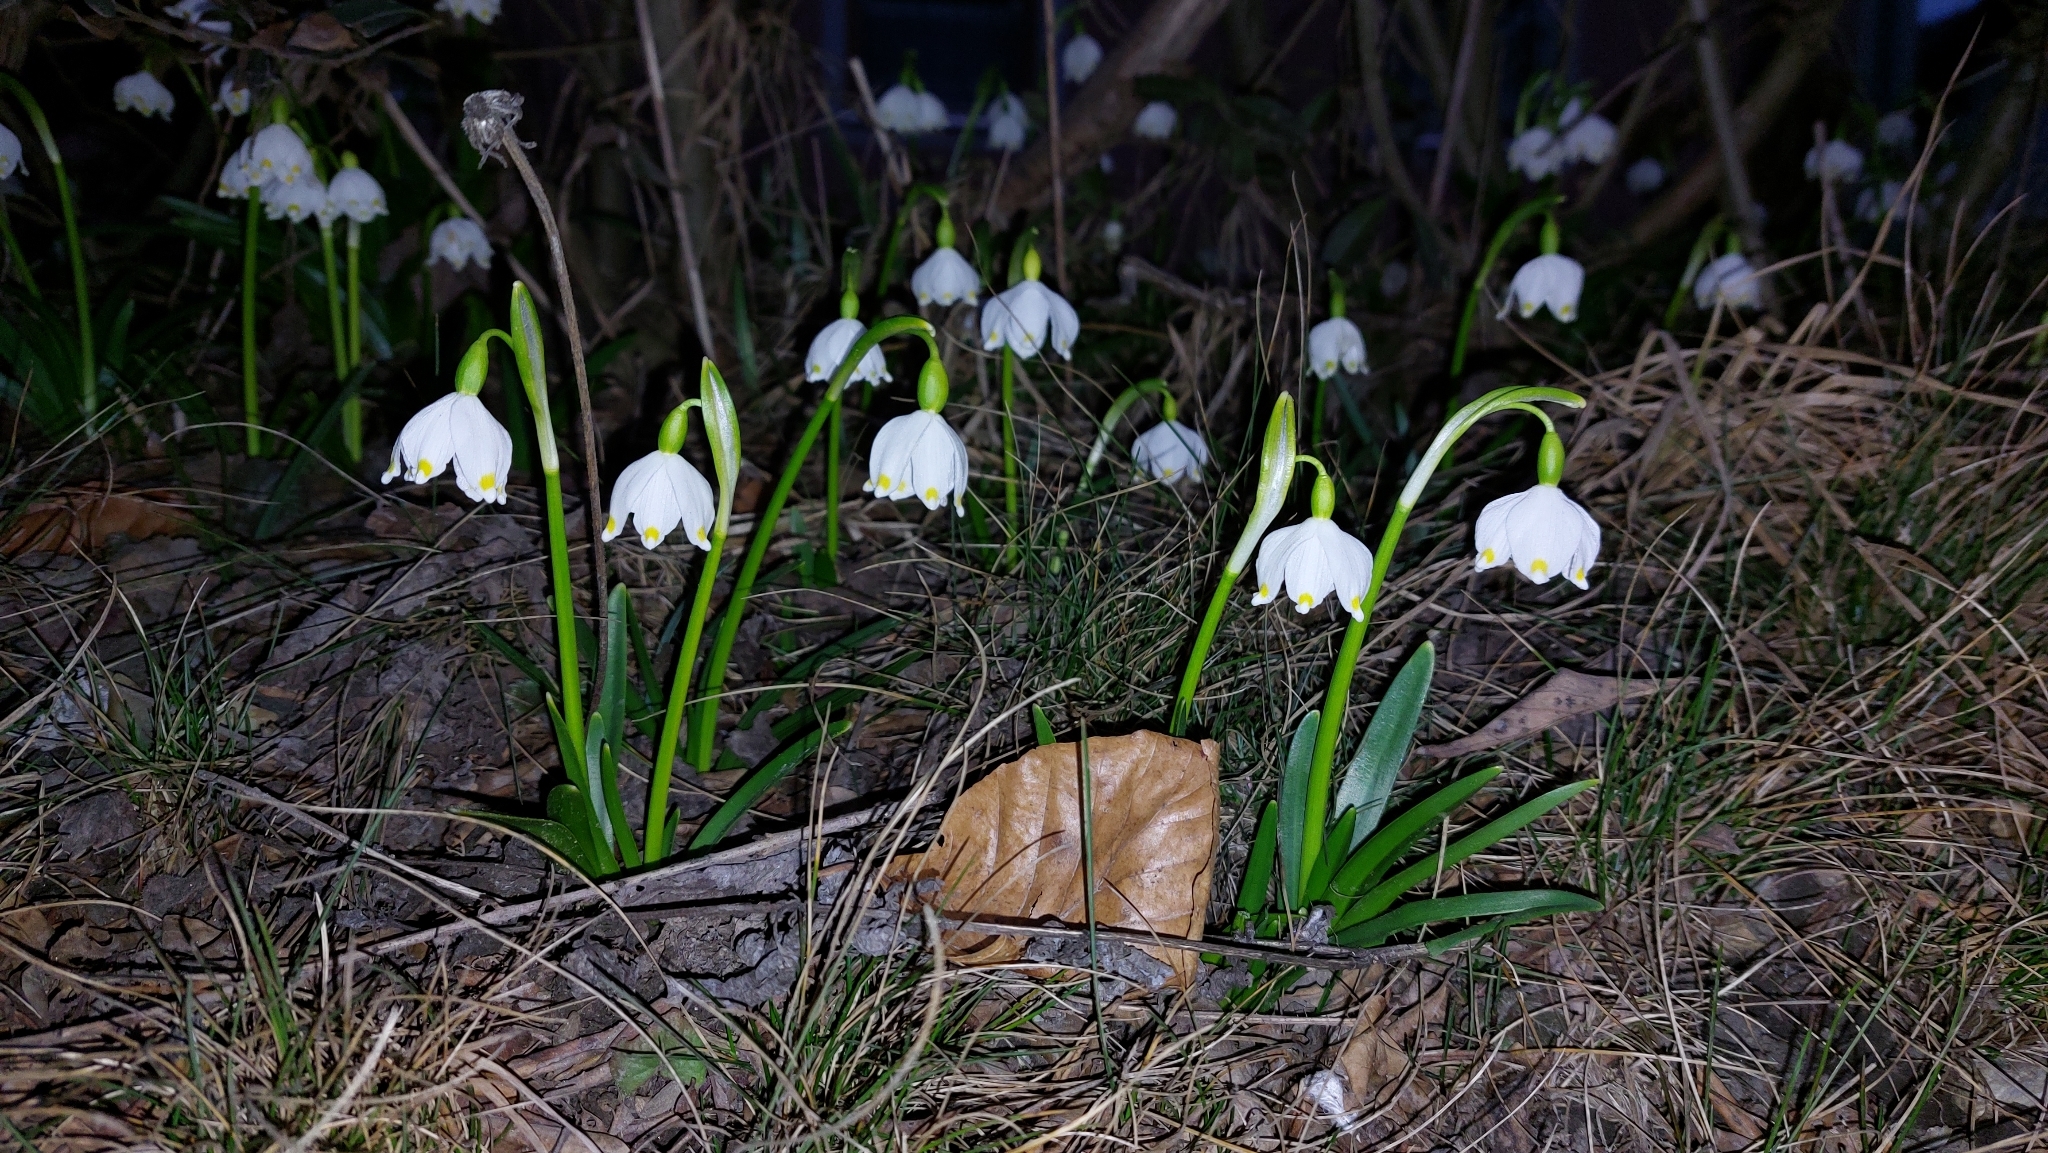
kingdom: Plantae
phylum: Tracheophyta
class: Liliopsida
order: Asparagales
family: Amaryllidaceae
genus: Leucojum
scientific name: Leucojum vernum
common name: Spring snowflake
